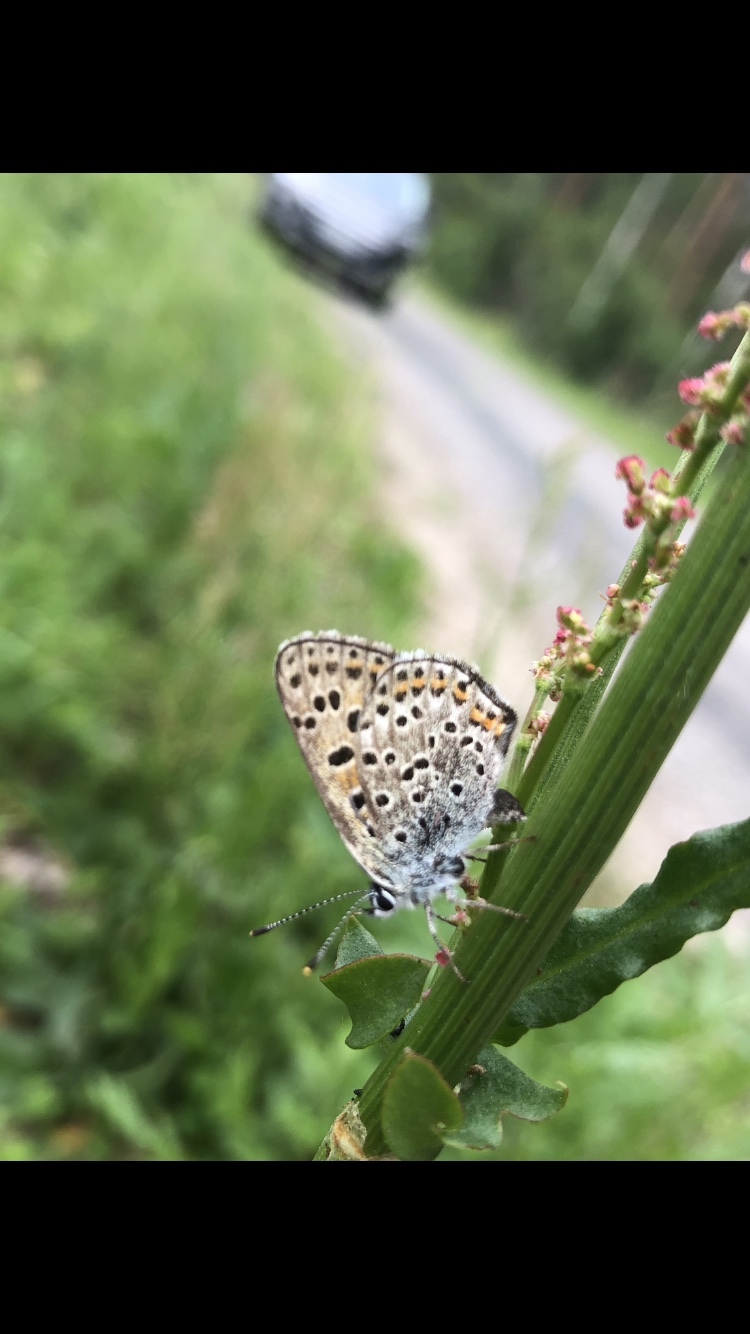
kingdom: Animalia
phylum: Arthropoda
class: Insecta
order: Lepidoptera
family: Lycaenidae
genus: Loweia
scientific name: Loweia tityrus
